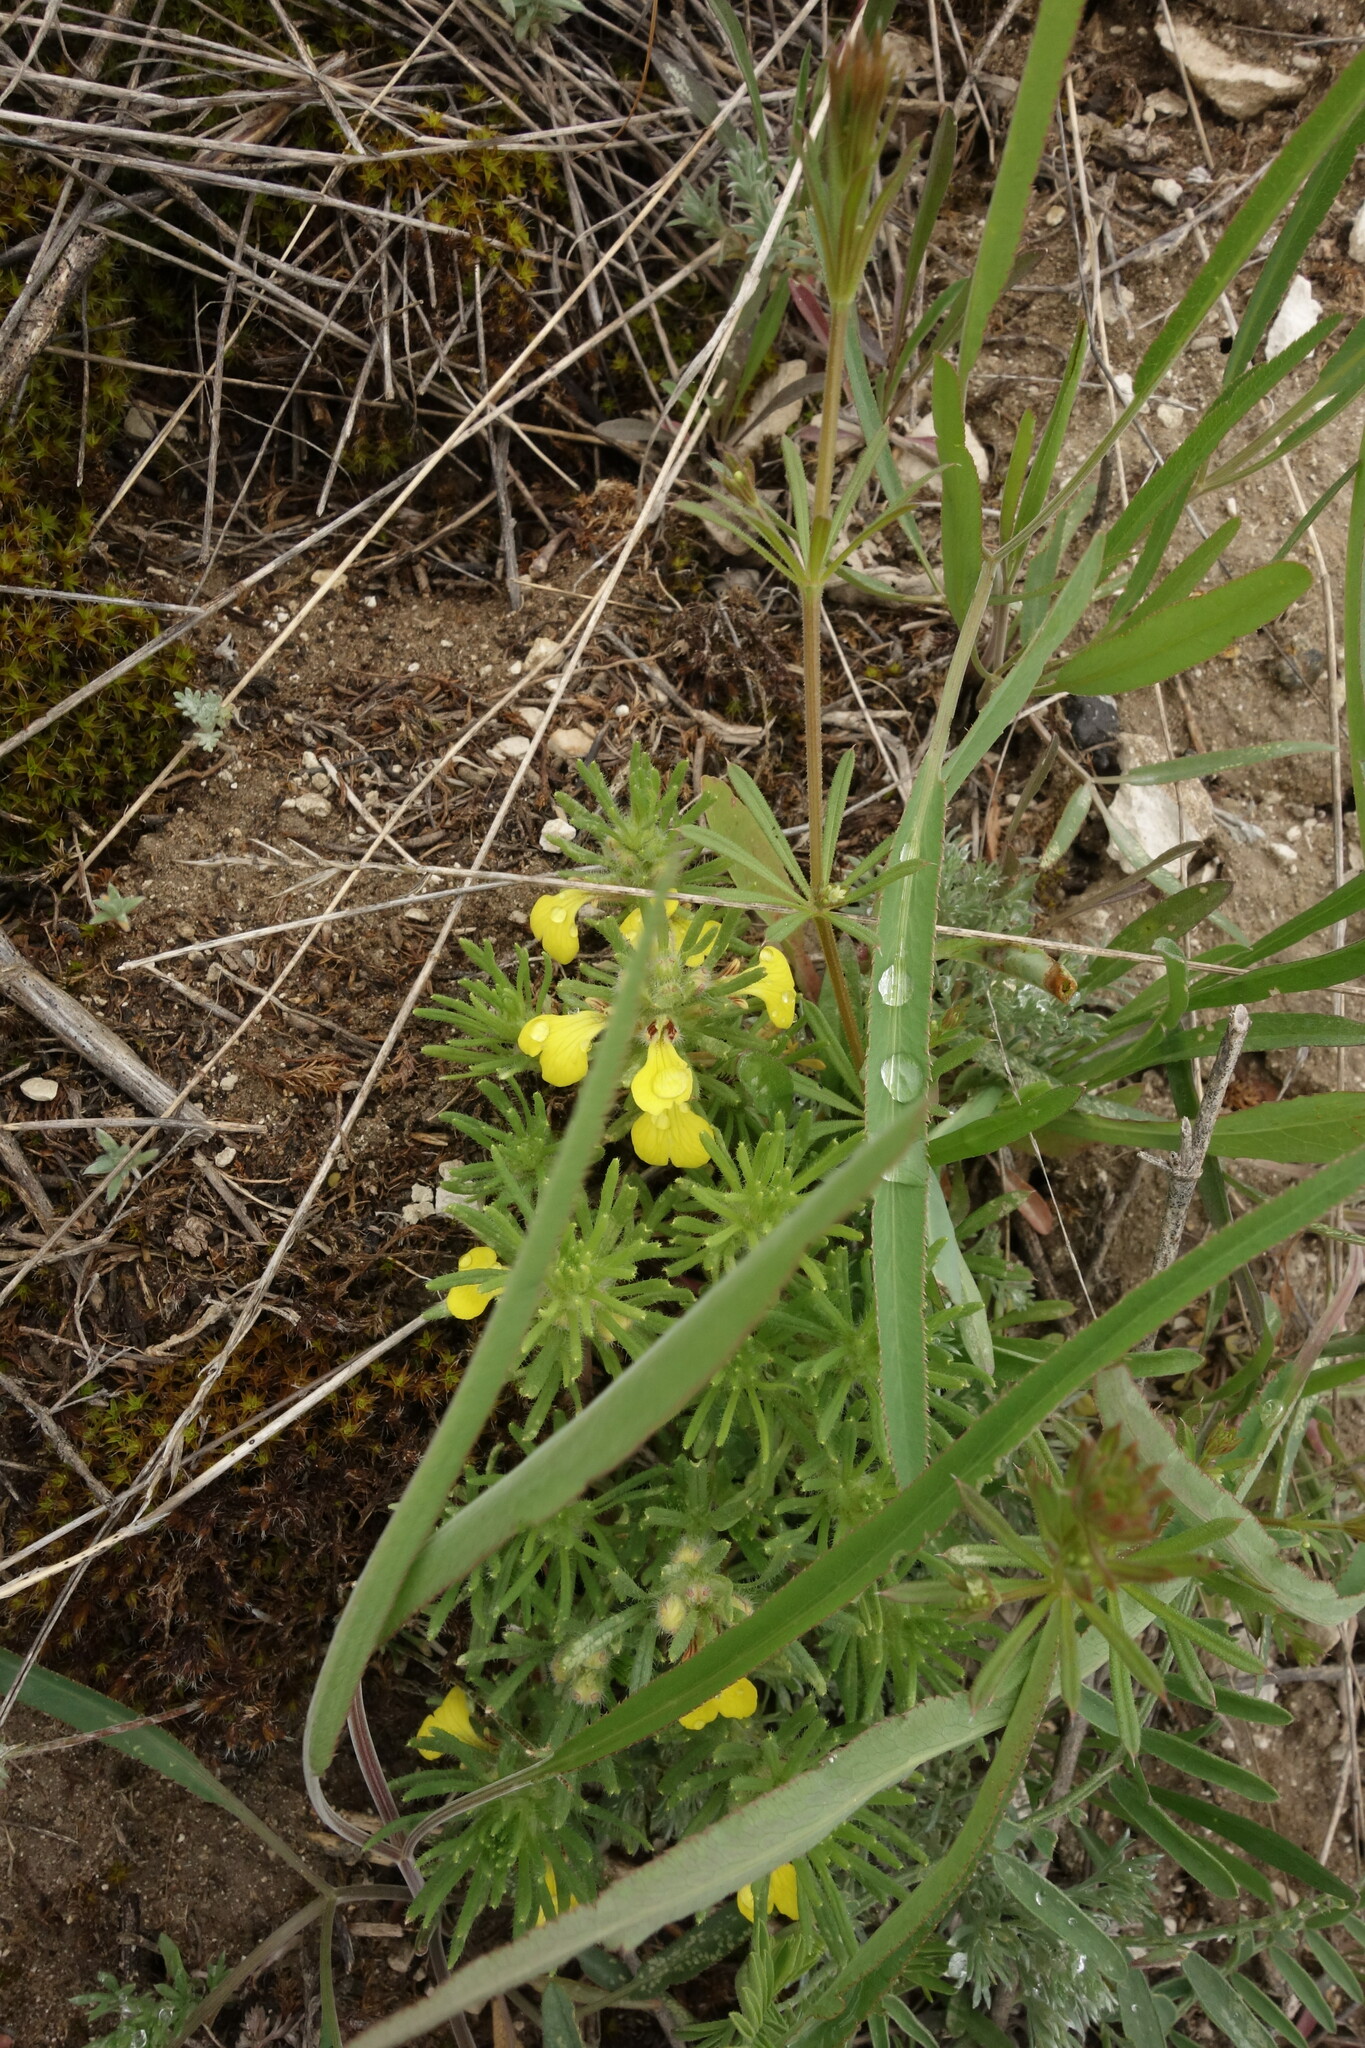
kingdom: Plantae
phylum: Tracheophyta
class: Magnoliopsida
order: Lamiales
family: Lamiaceae
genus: Ajuga
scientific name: Ajuga chamaepitys
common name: Ground-pine
